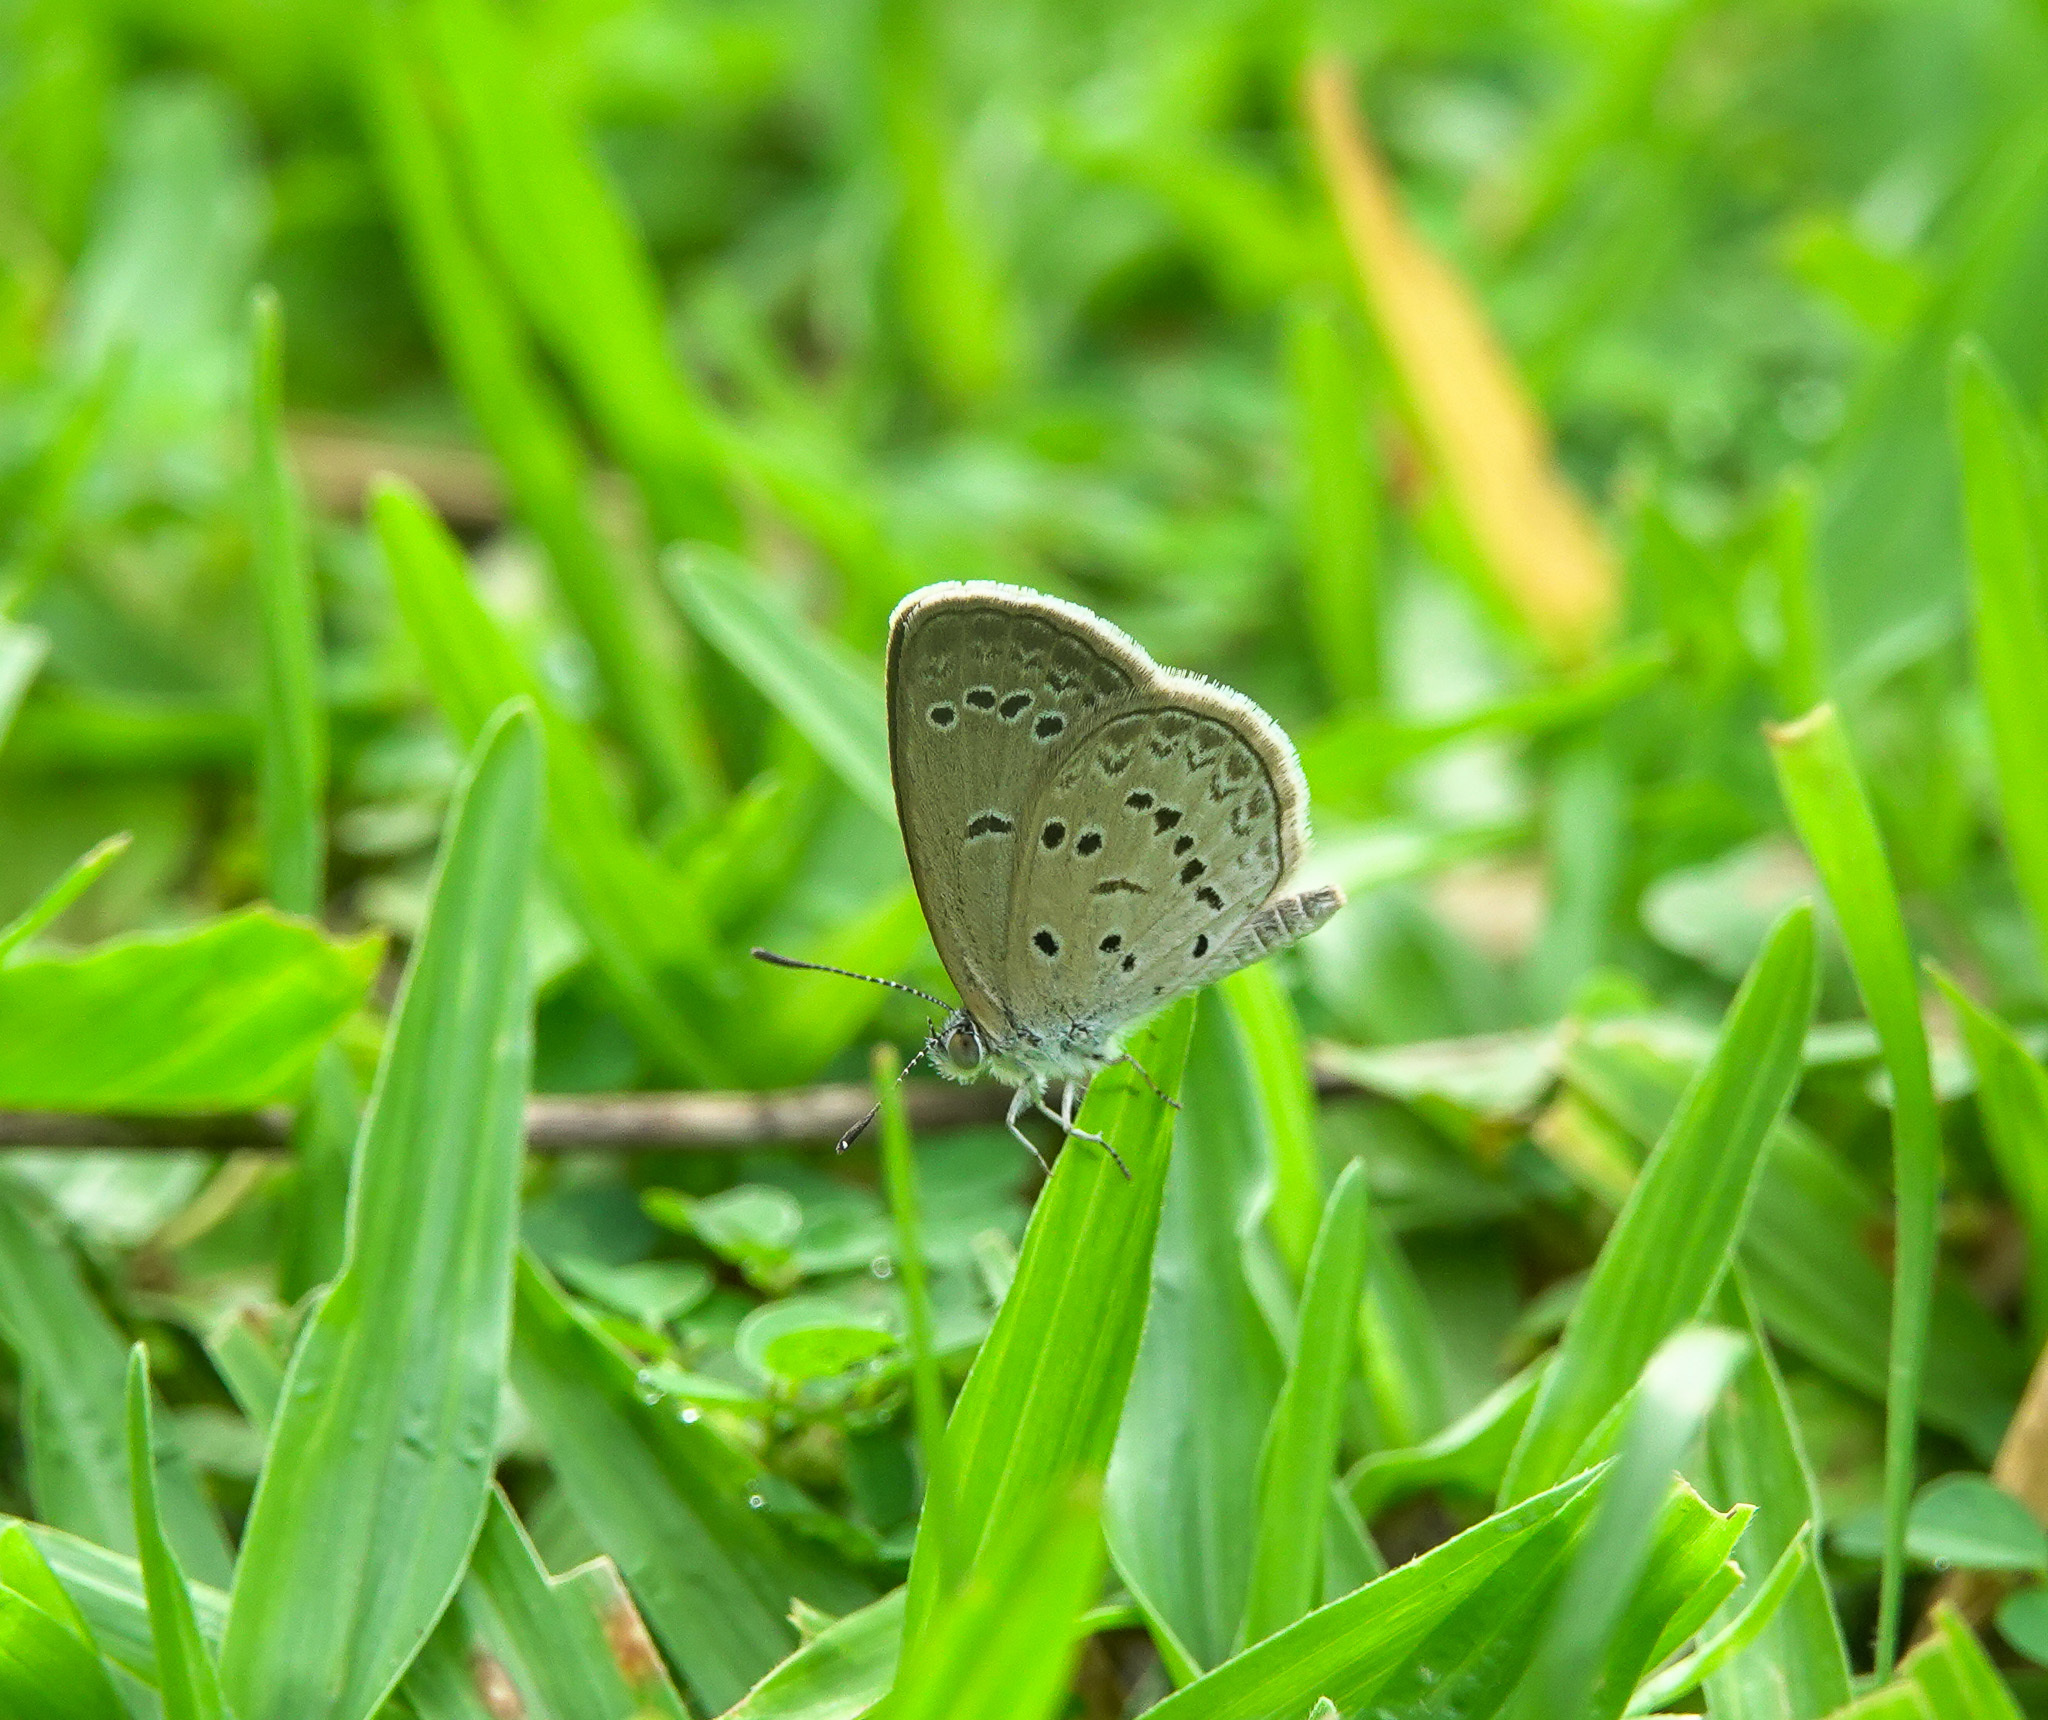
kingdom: Animalia
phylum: Arthropoda
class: Insecta
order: Lepidoptera
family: Lycaenidae
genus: Zizina
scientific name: Zizina otis
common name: Lesser grass blue
